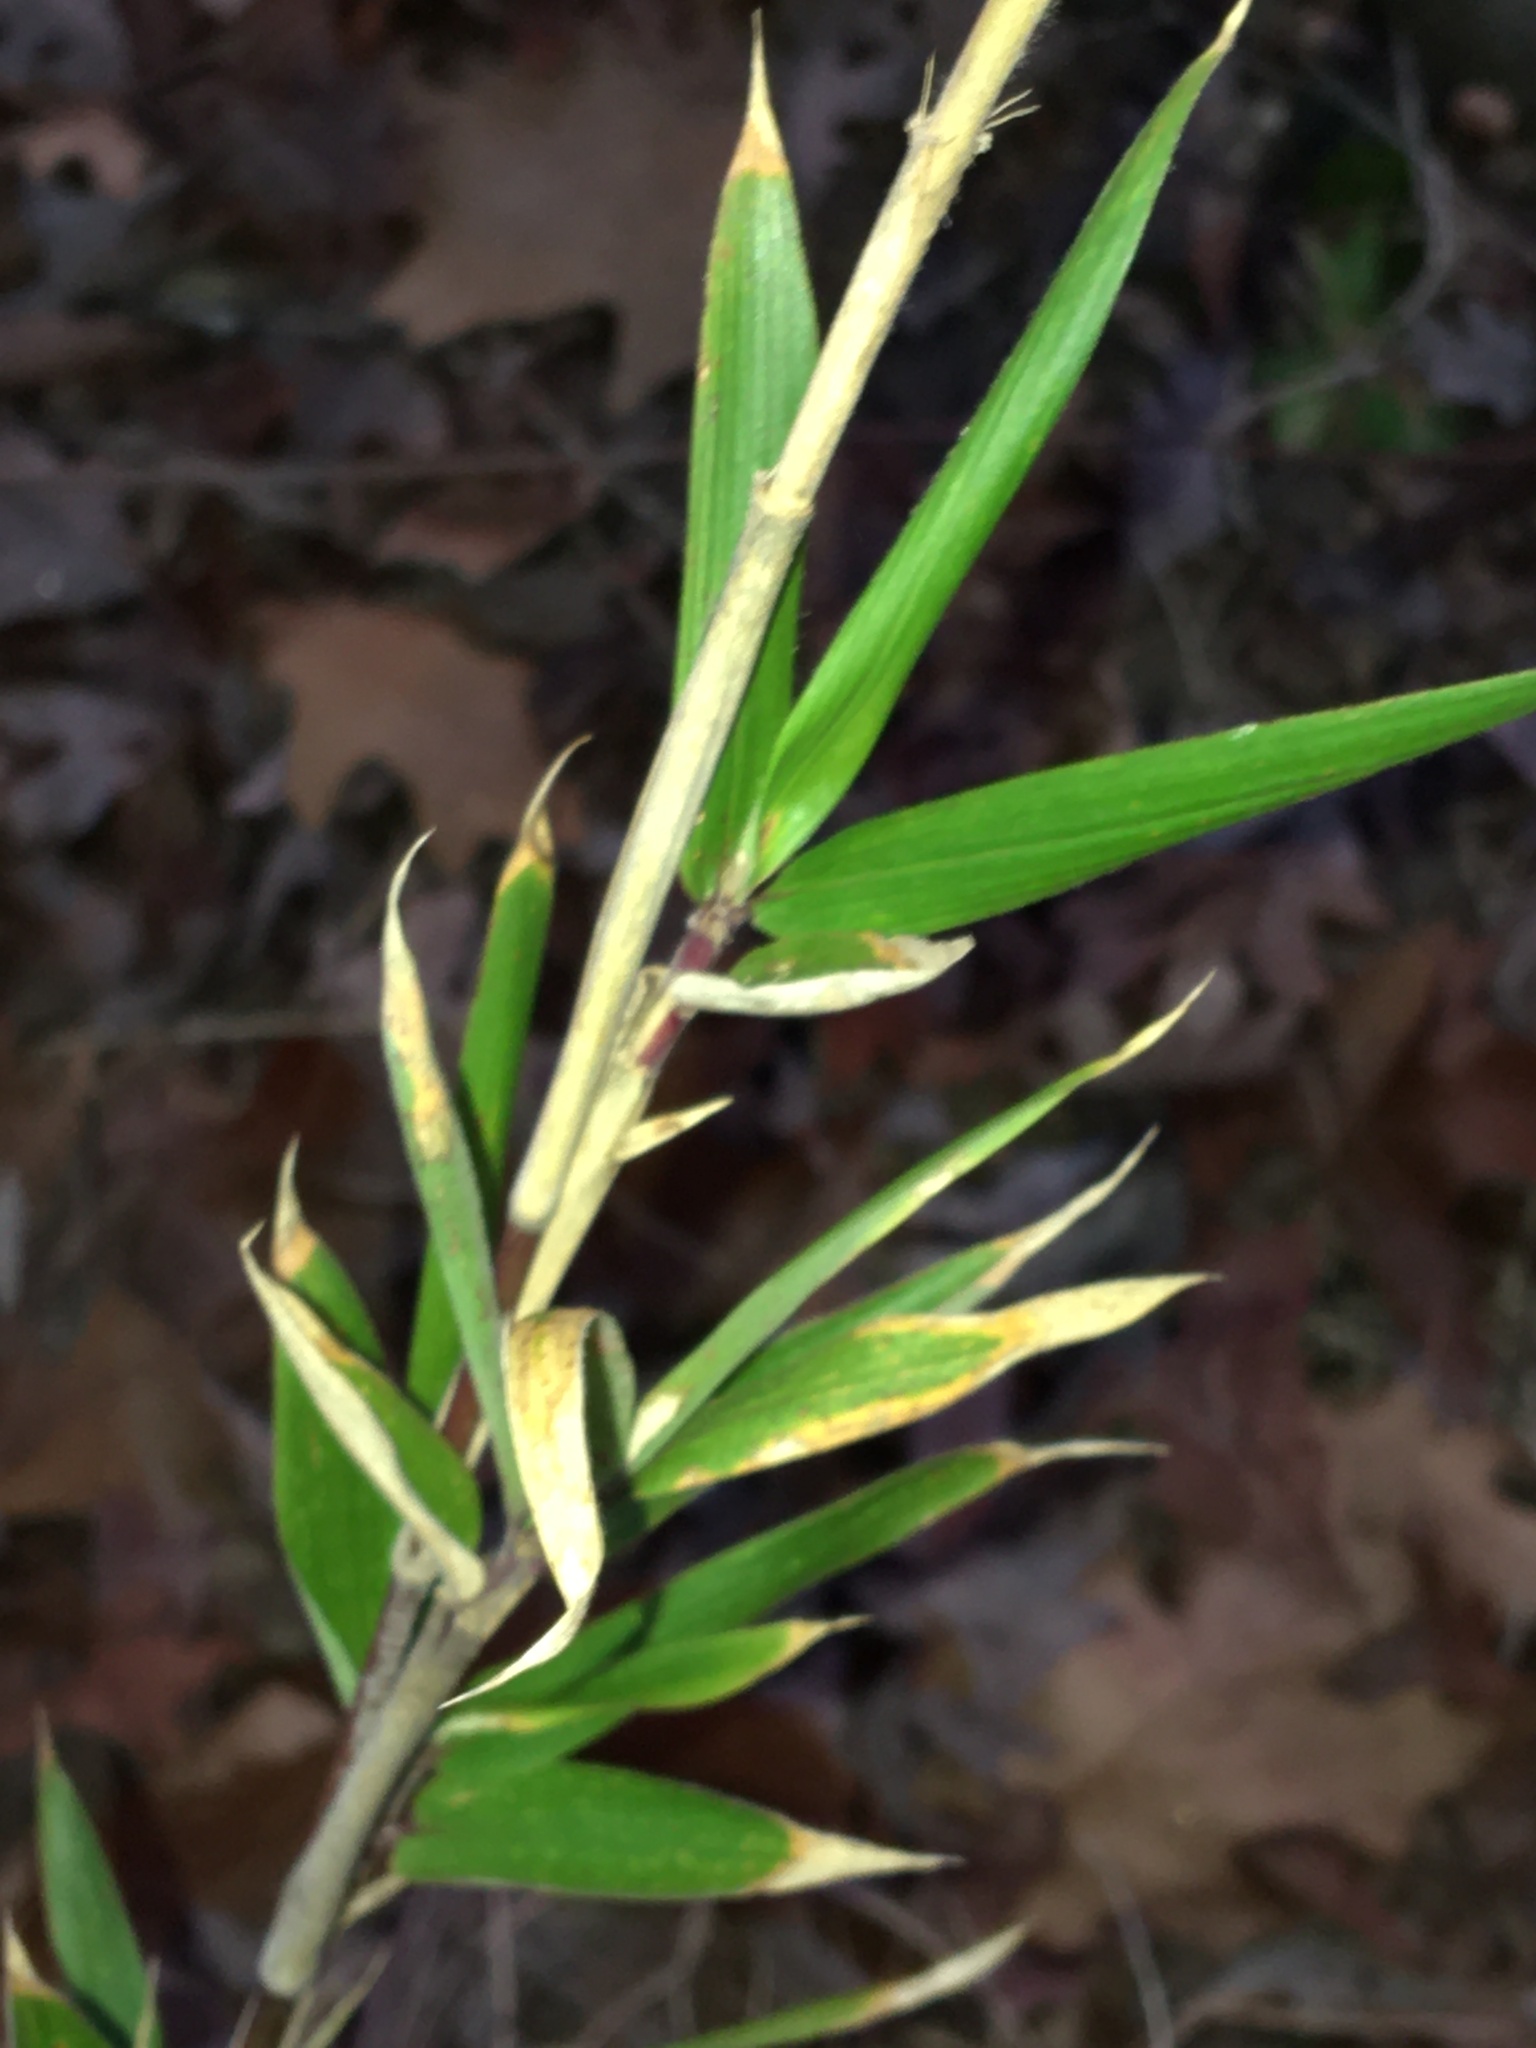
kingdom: Plantae
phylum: Tracheophyta
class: Liliopsida
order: Poales
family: Poaceae
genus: Arundinaria
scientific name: Arundinaria gigantea
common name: Giant cane
